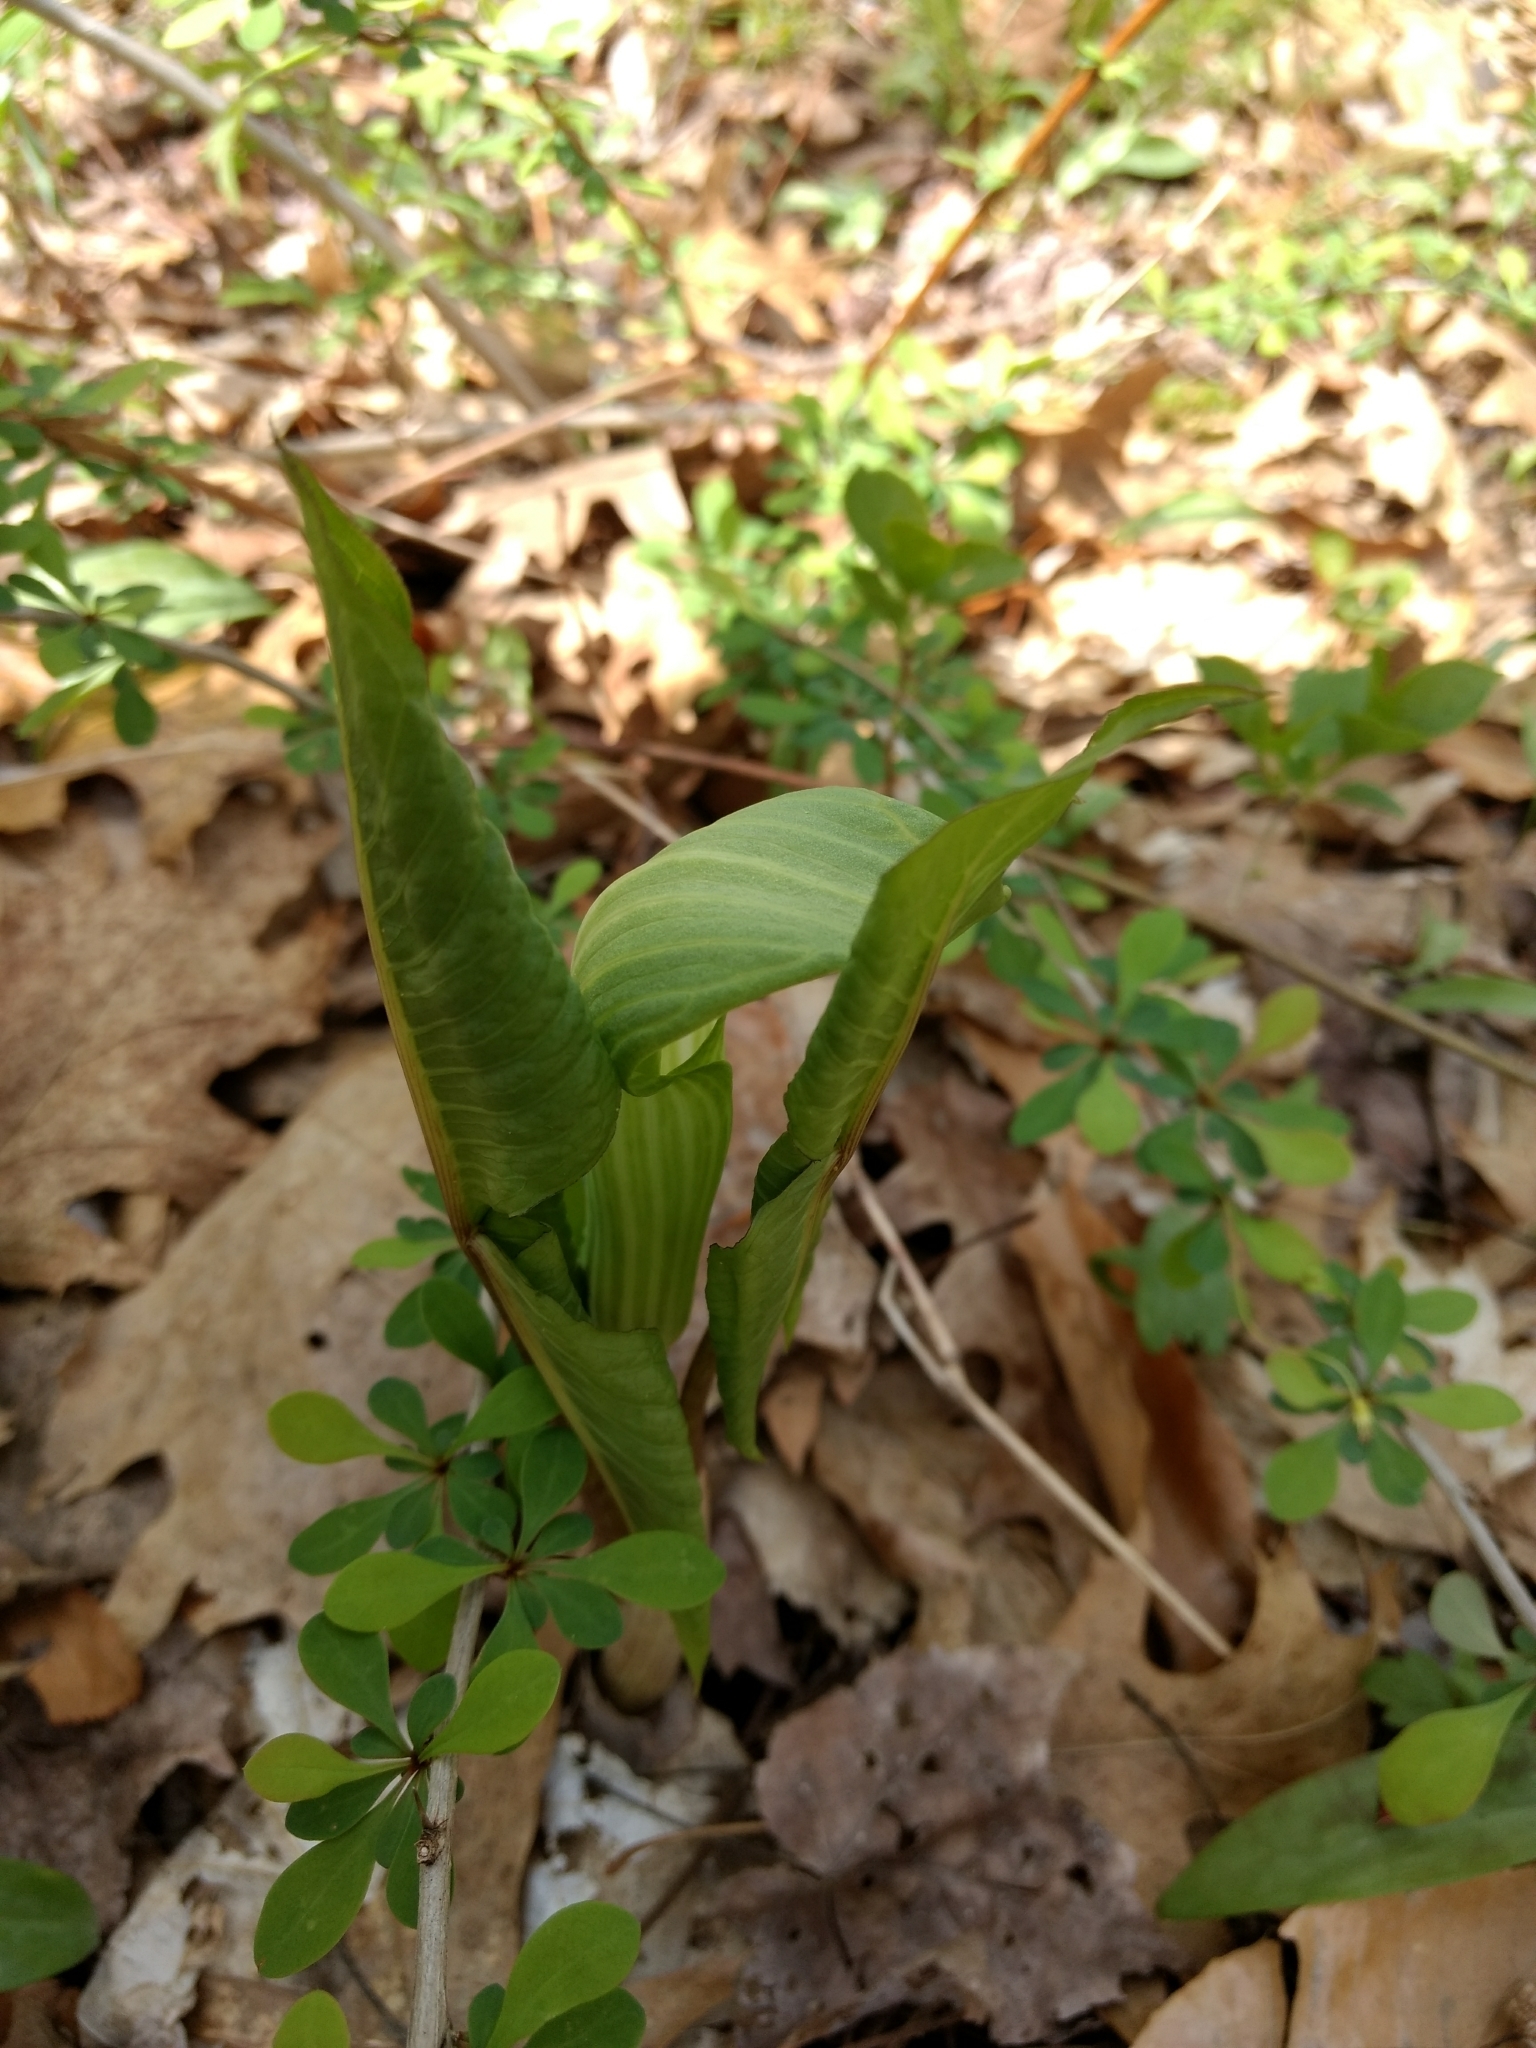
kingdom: Plantae
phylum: Tracheophyta
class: Liliopsida
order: Alismatales
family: Araceae
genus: Arisaema
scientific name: Arisaema triphyllum
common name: Jack-in-the-pulpit
